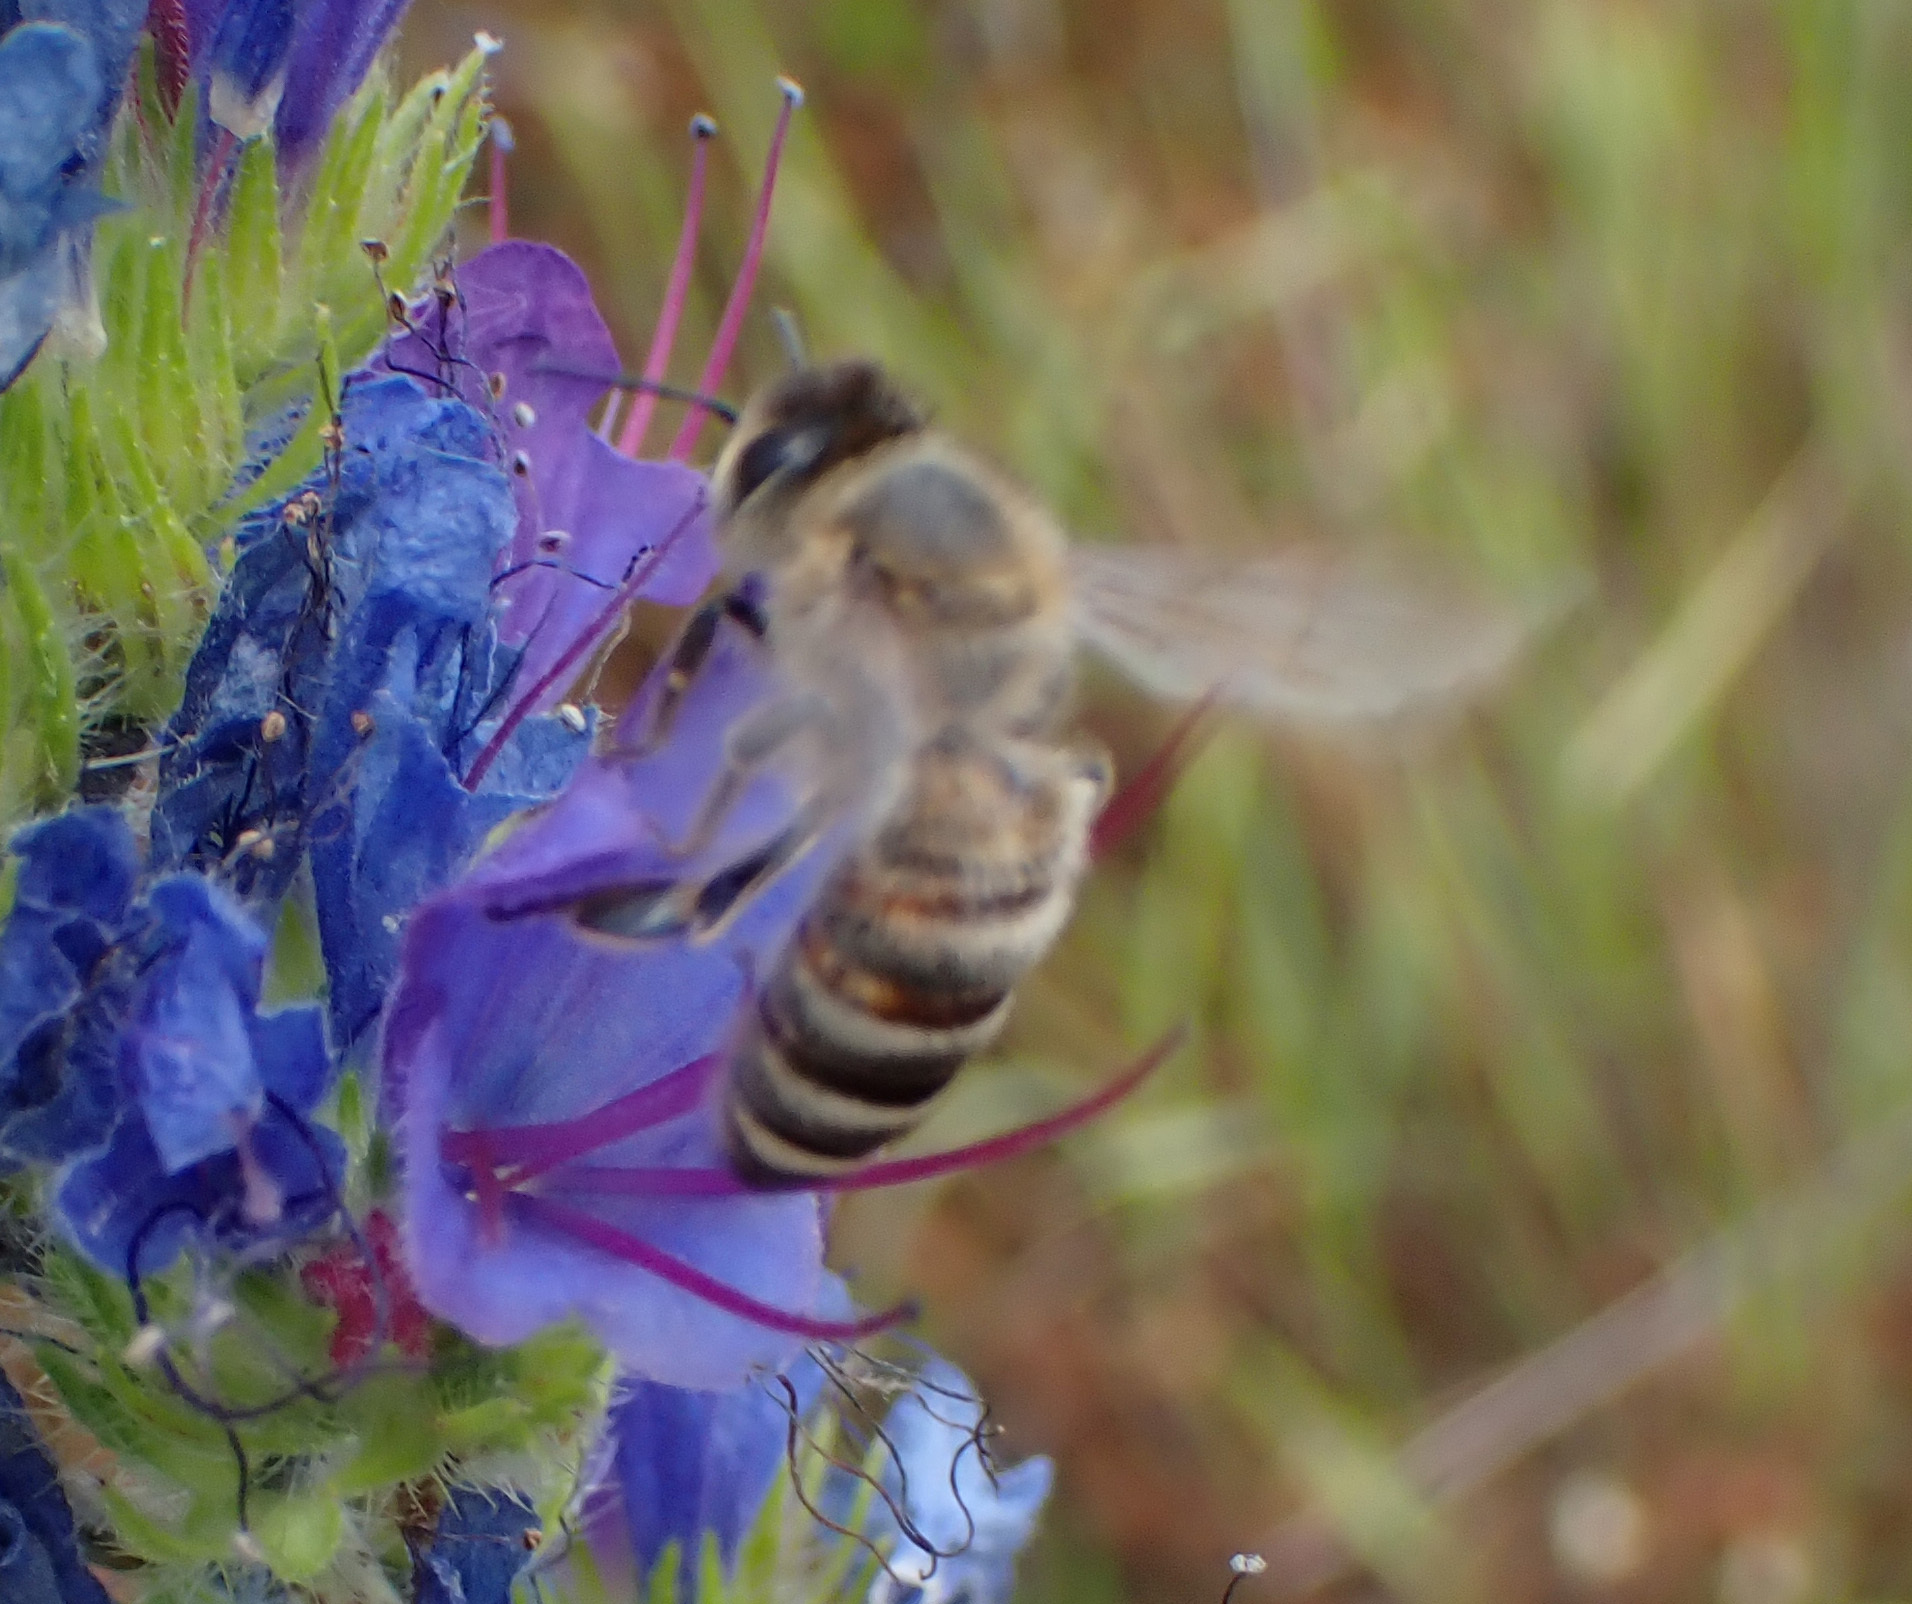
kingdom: Animalia
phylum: Arthropoda
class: Insecta
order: Hymenoptera
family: Apidae
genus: Apis
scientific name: Apis mellifera
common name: Honey bee
